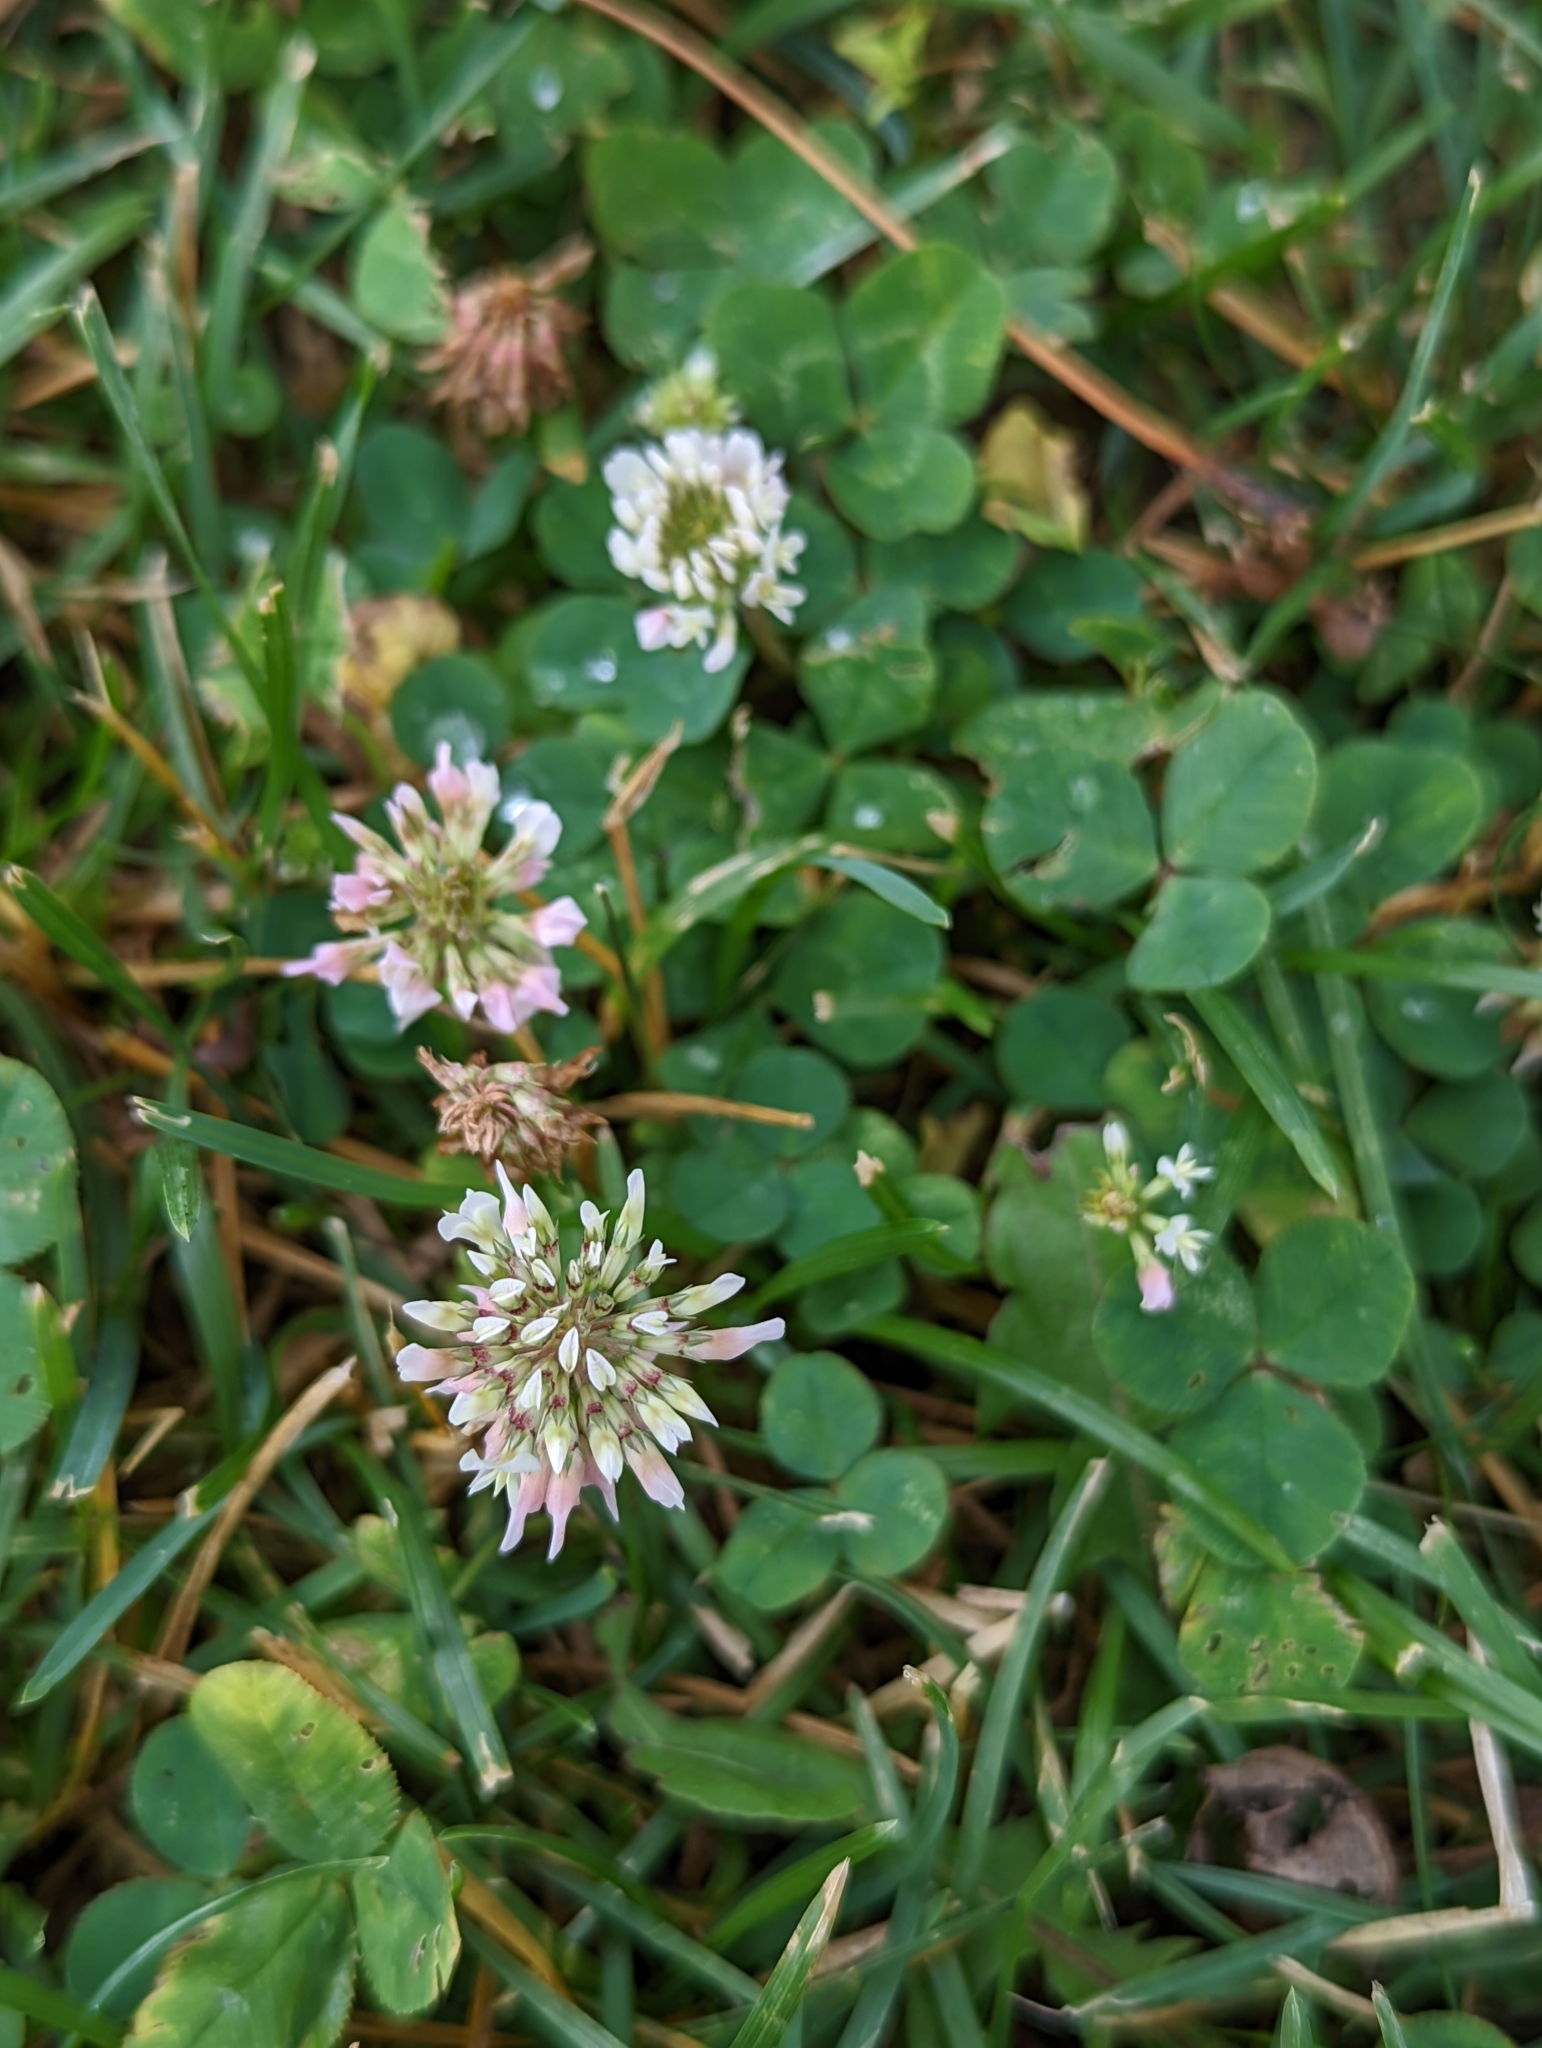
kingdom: Plantae
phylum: Tracheophyta
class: Magnoliopsida
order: Fabales
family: Fabaceae
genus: Trifolium
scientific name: Trifolium repens
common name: White clover
